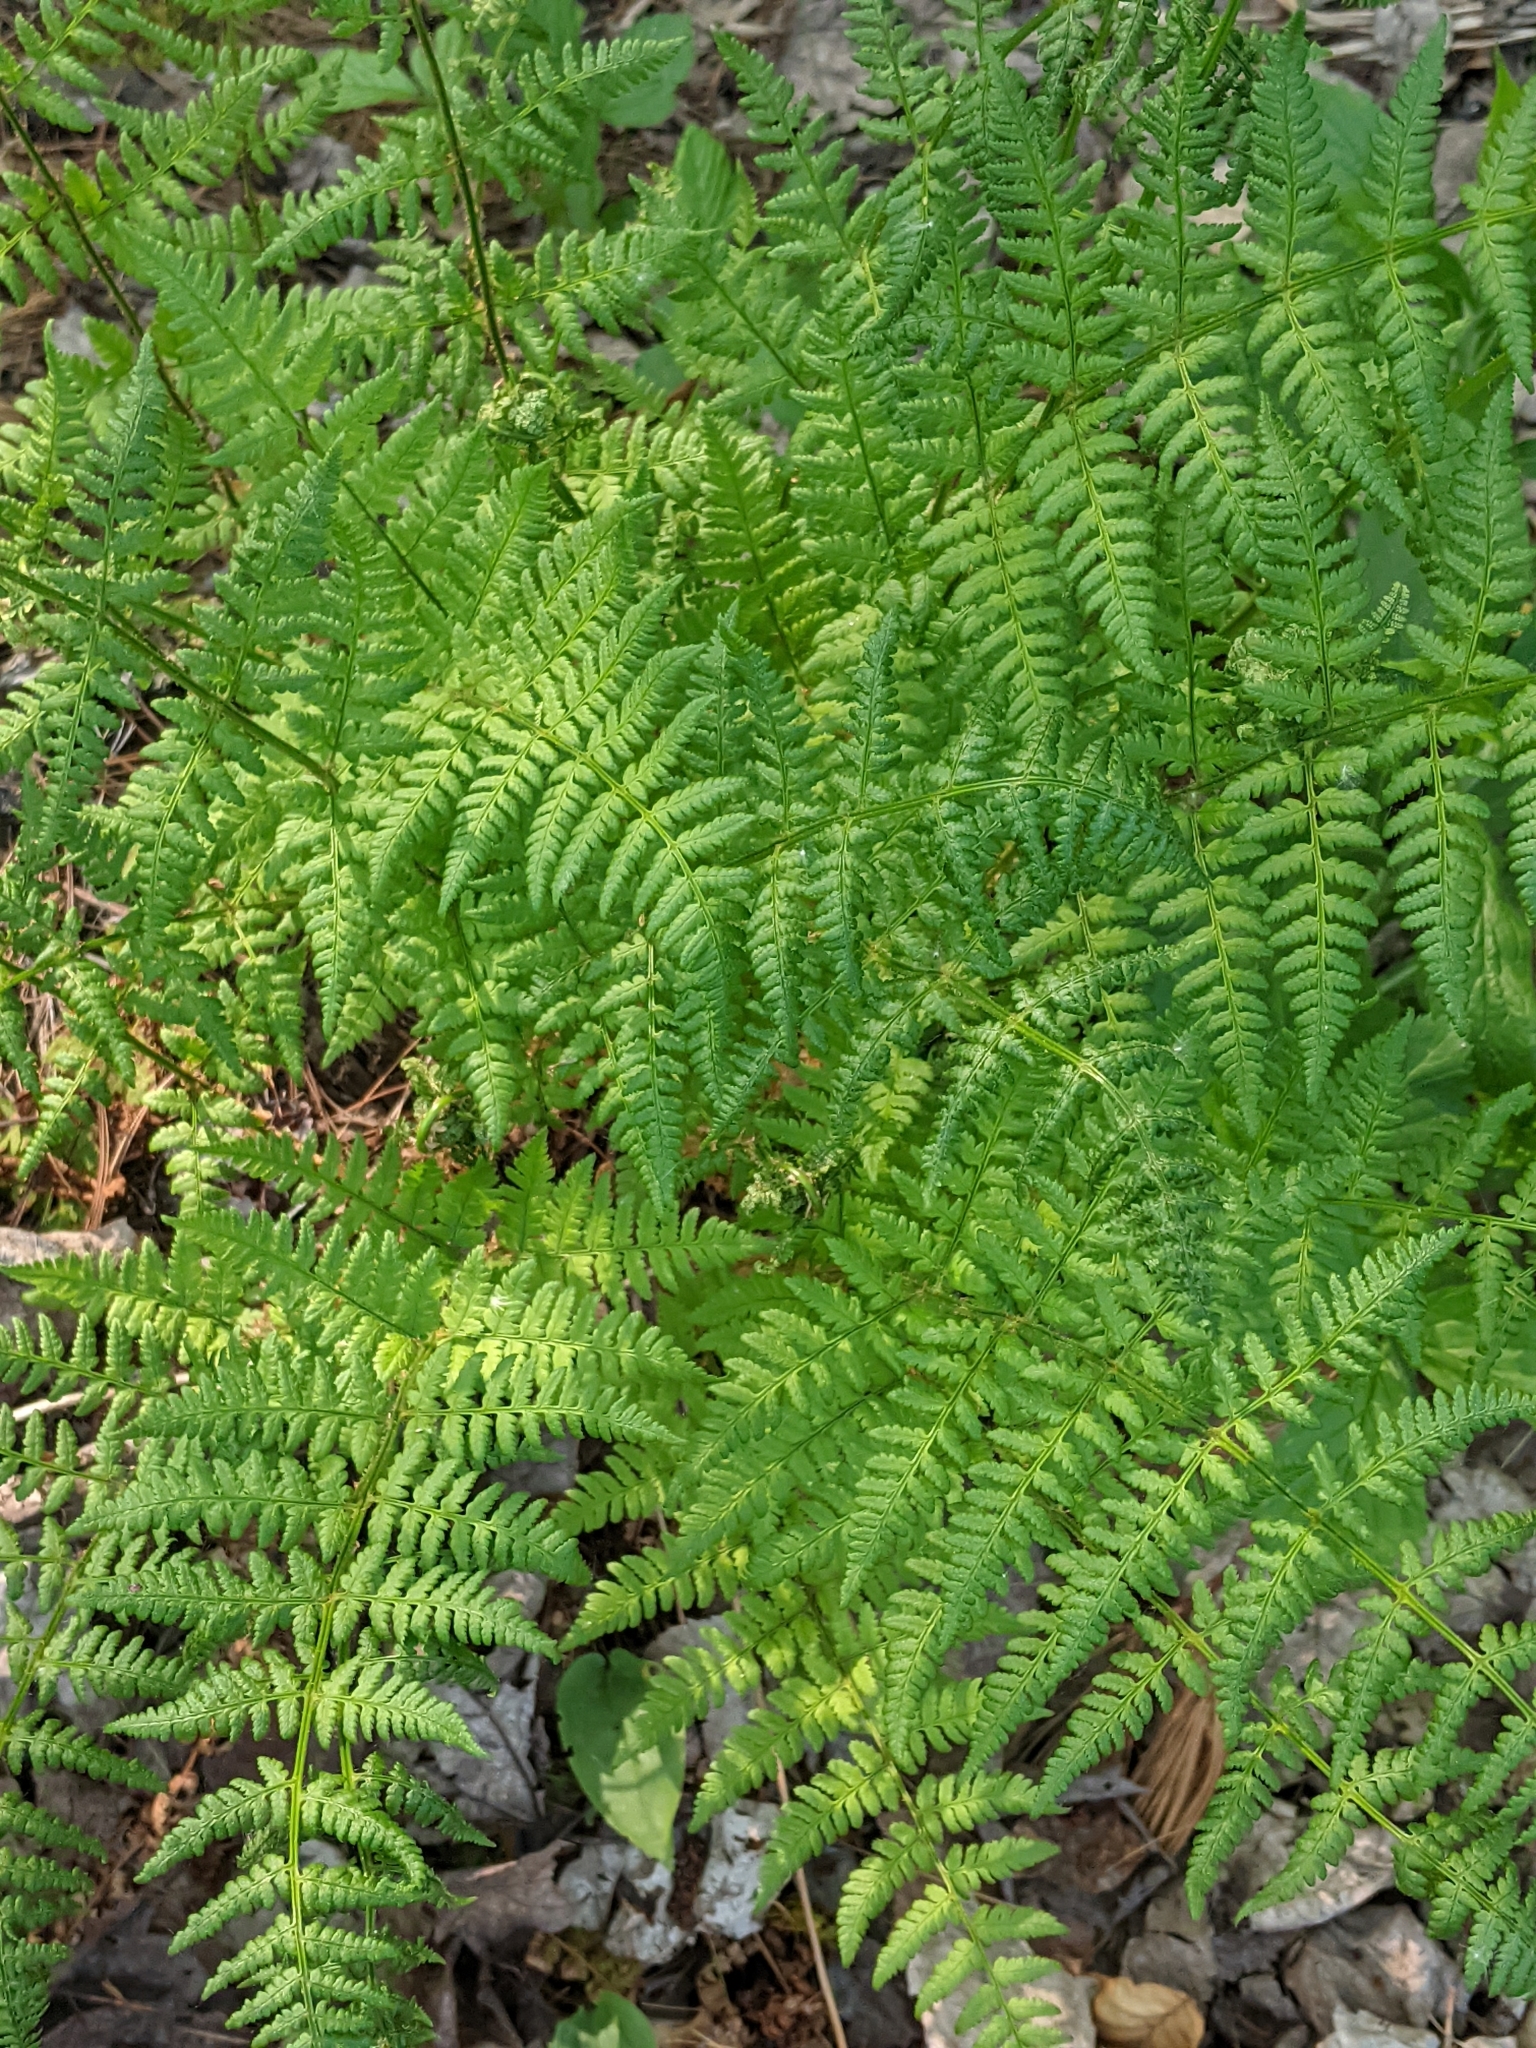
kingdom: Plantae
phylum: Tracheophyta
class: Polypodiopsida
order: Polypodiales
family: Dryopteridaceae
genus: Dryopteris
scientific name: Dryopteris intermedia
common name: Evergreen wood fern
